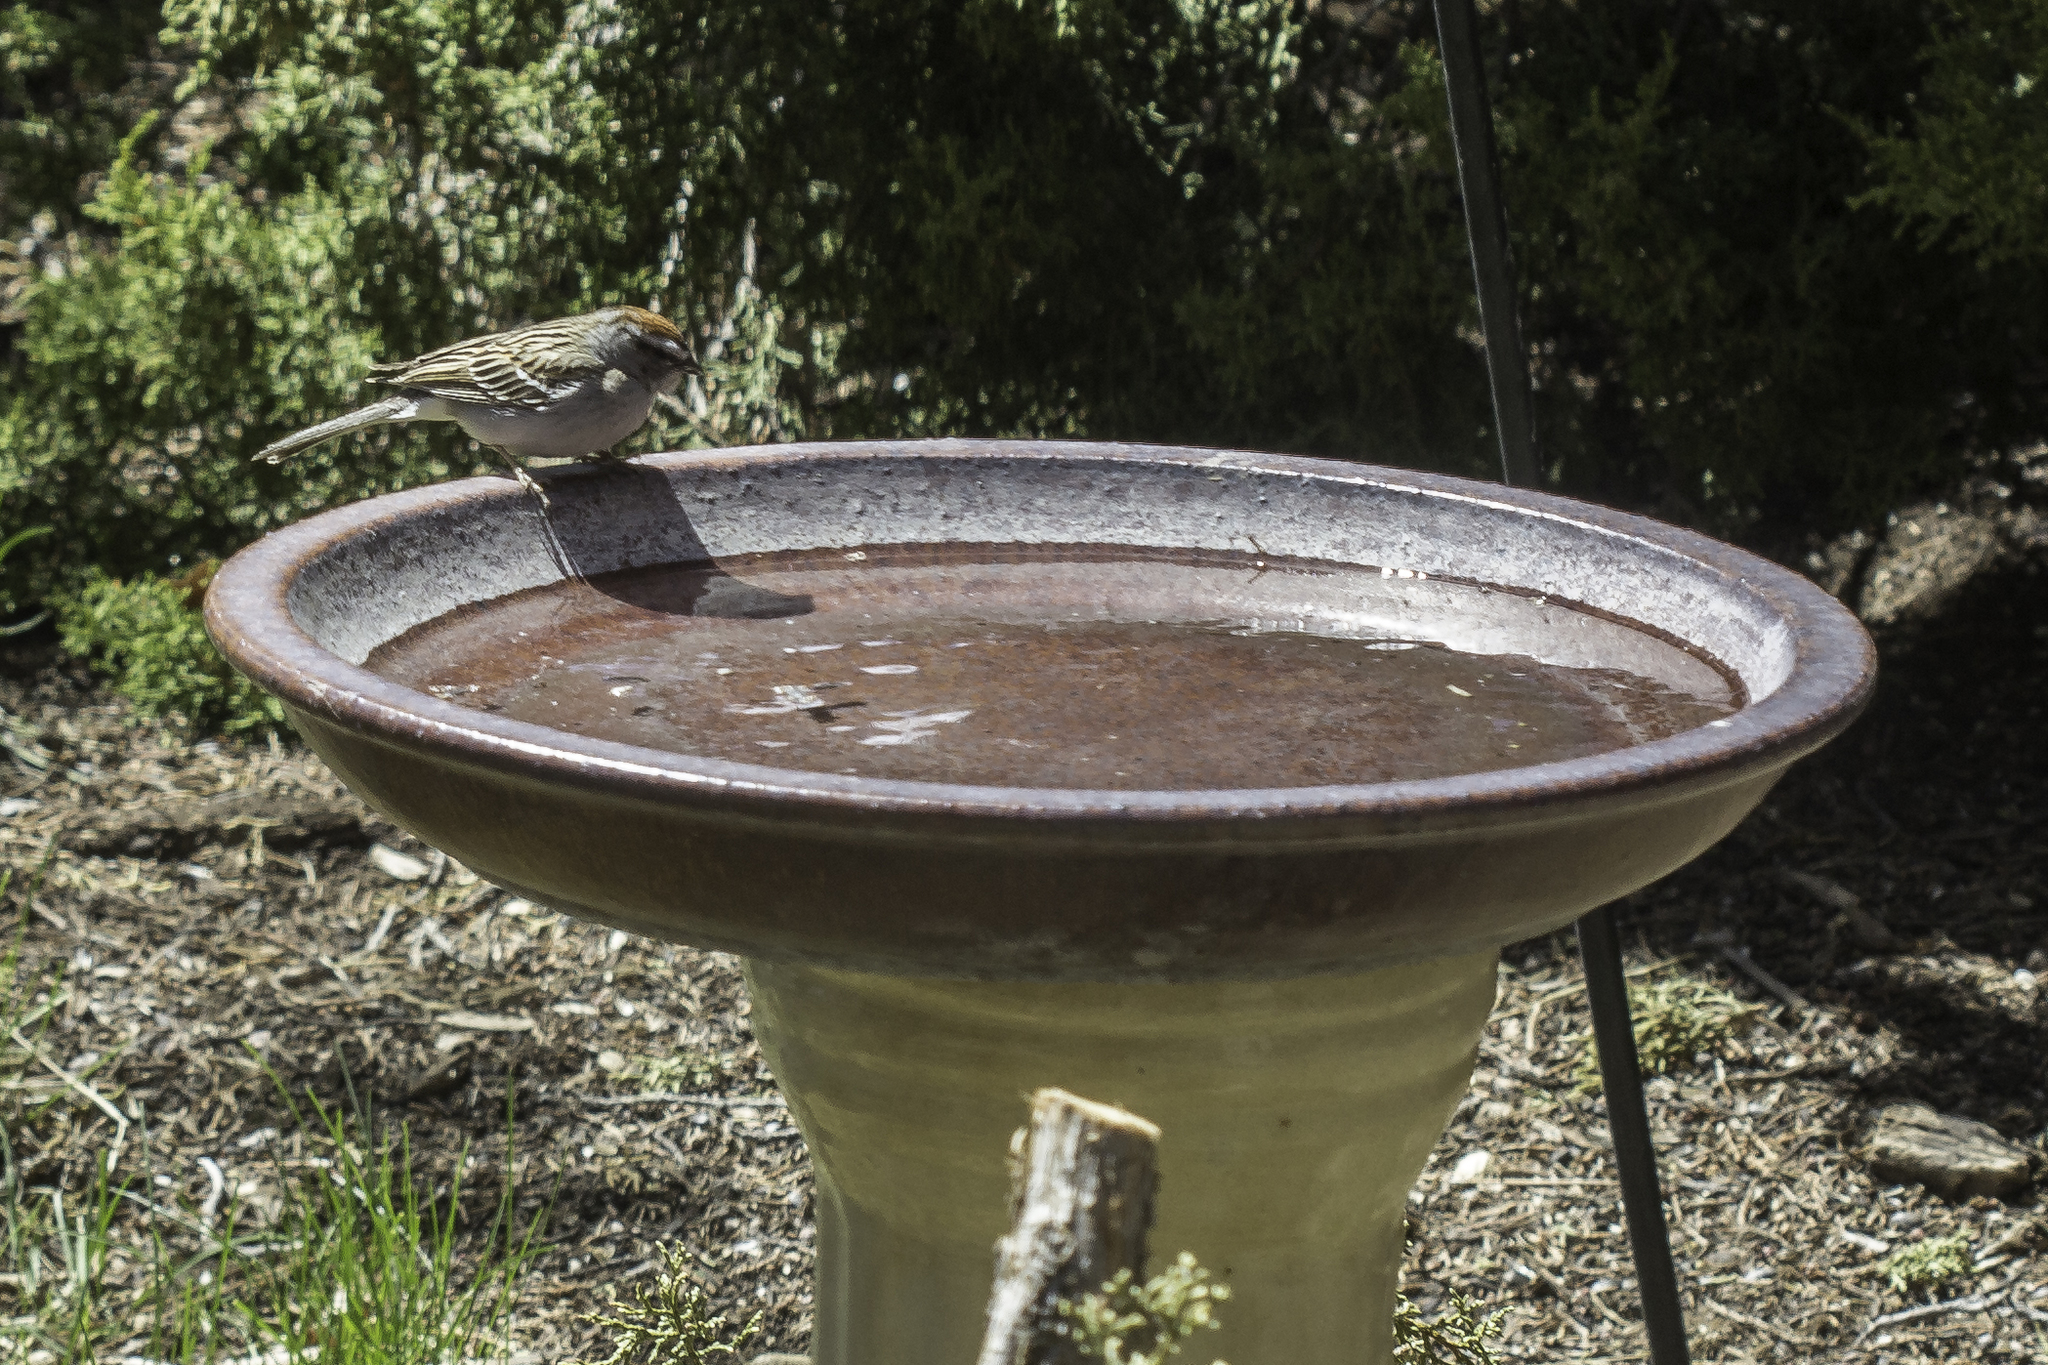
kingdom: Animalia
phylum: Chordata
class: Aves
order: Passeriformes
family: Passerellidae
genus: Spizella
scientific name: Spizella passerina
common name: Chipping sparrow
